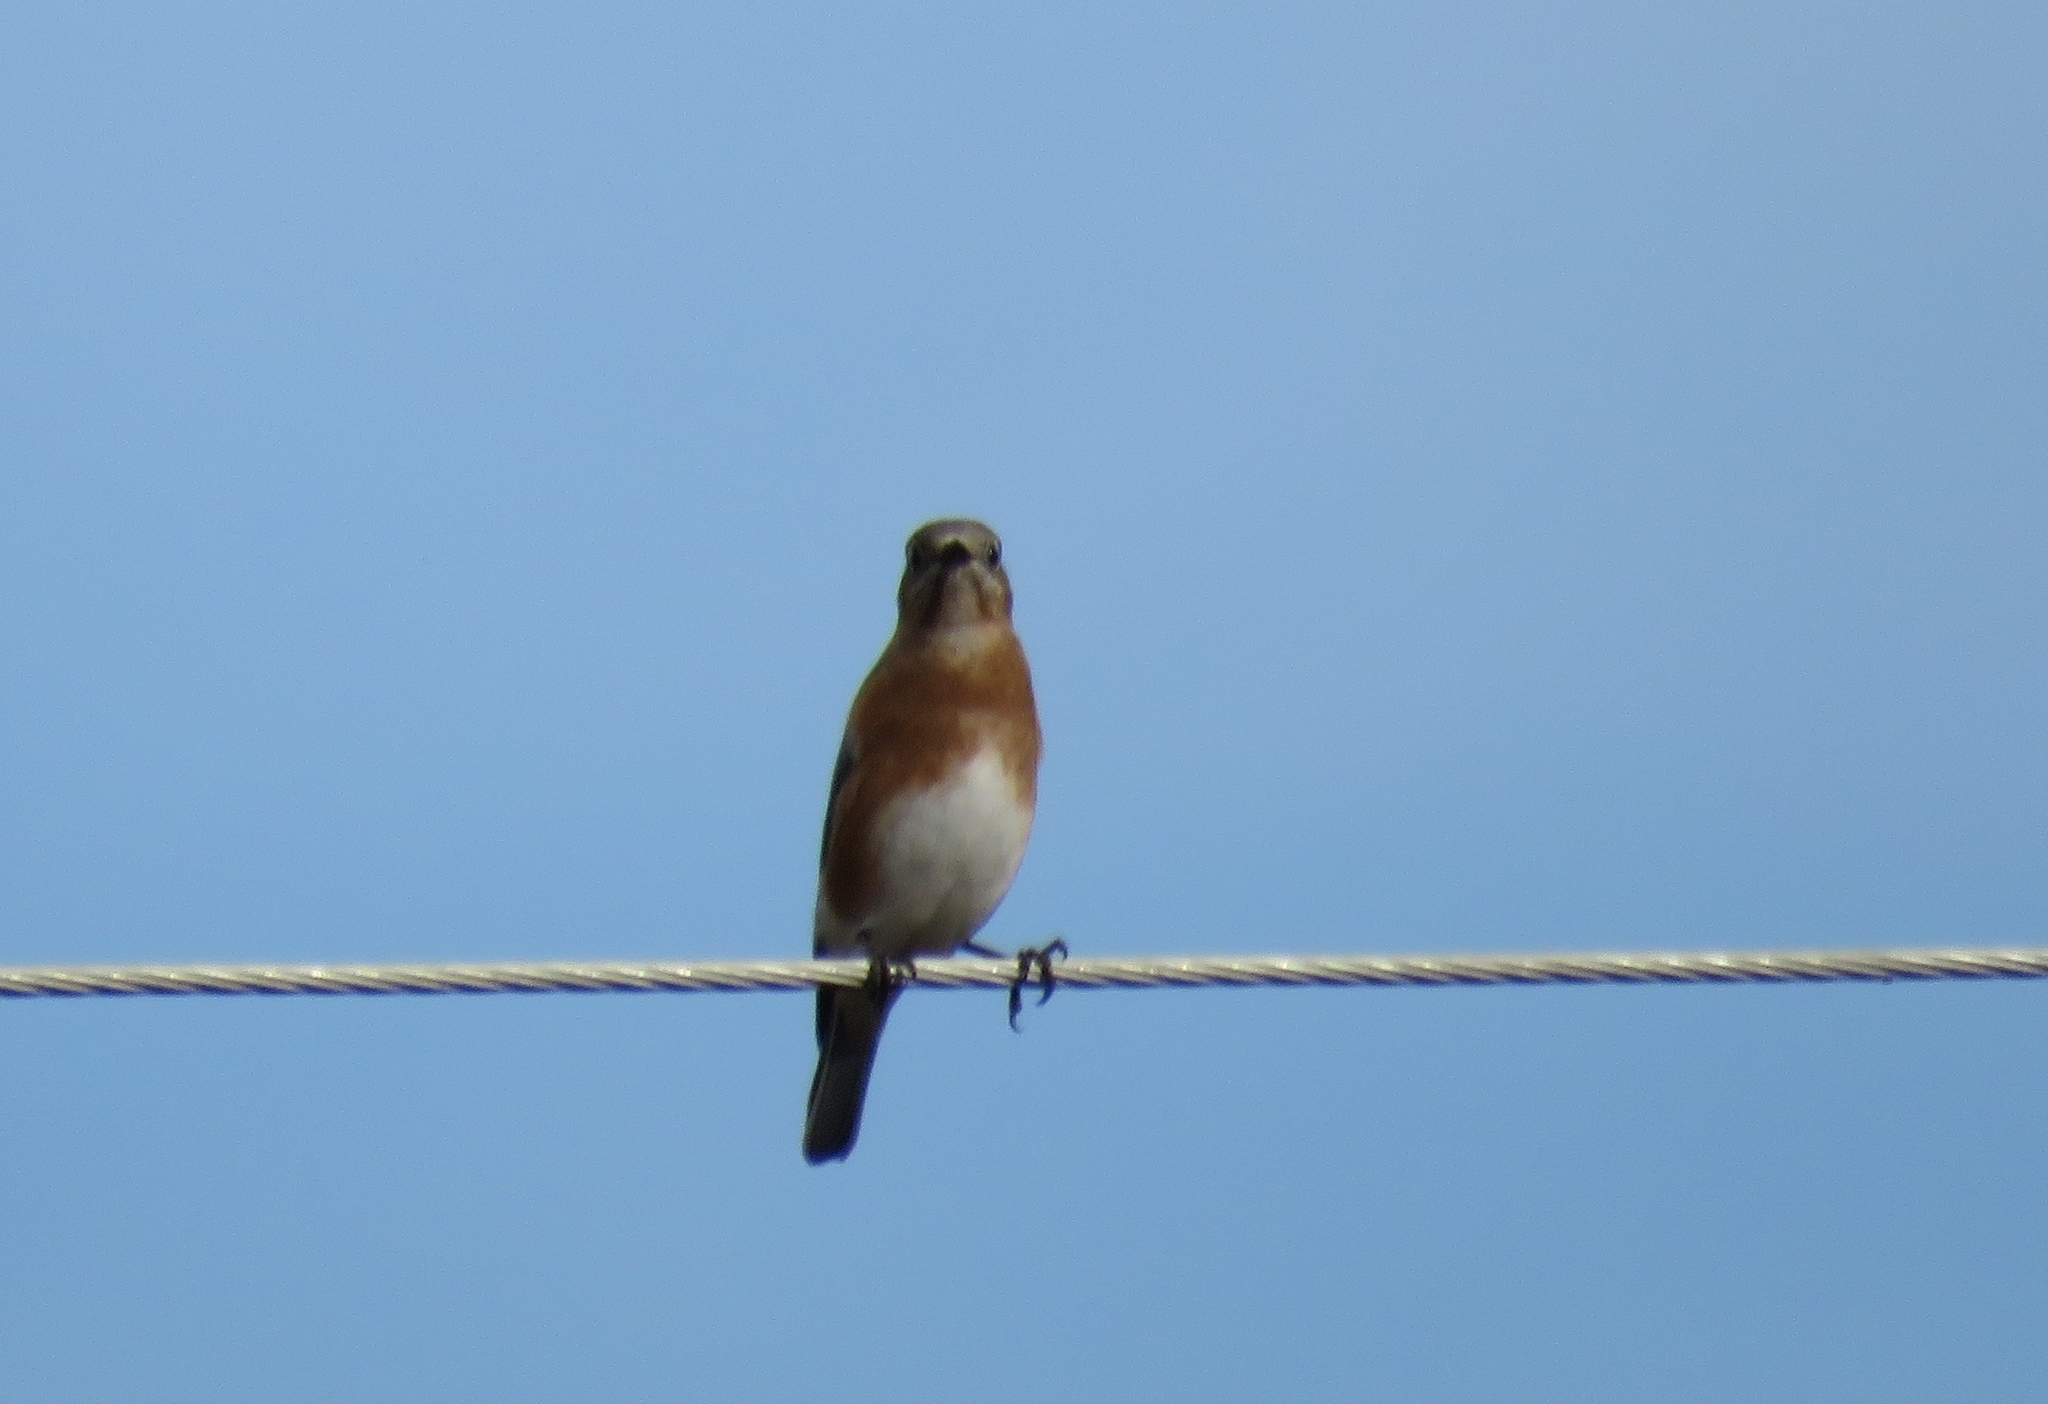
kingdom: Animalia
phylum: Chordata
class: Aves
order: Passeriformes
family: Turdidae
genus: Sialia
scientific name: Sialia sialis
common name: Eastern bluebird
